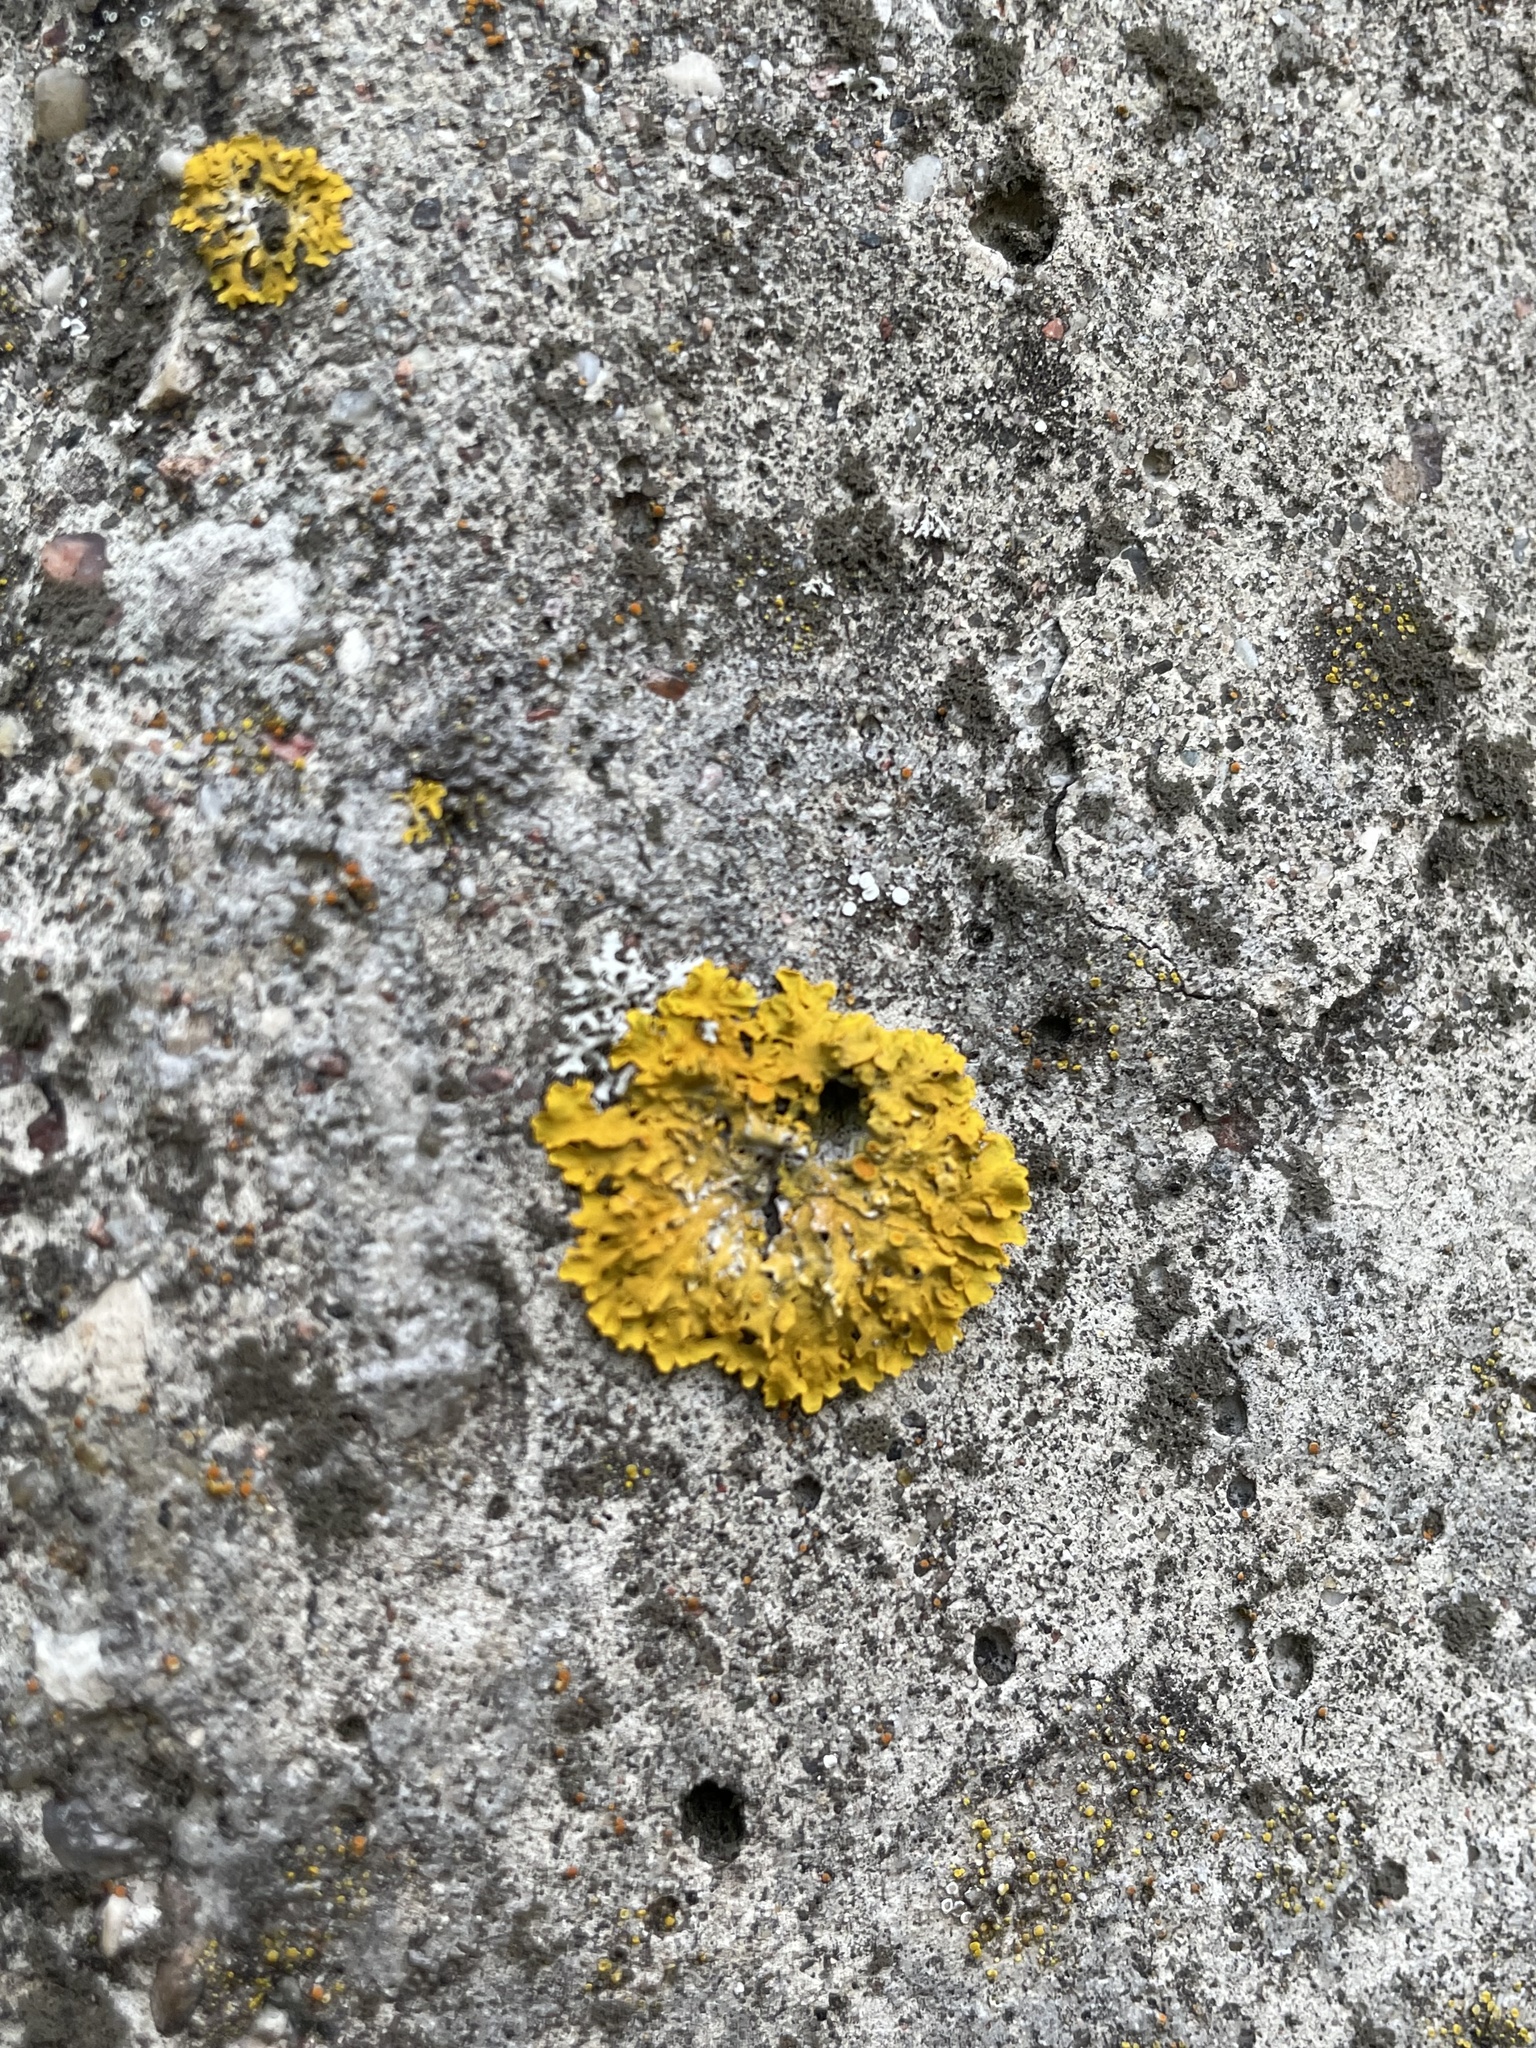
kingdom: Fungi
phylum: Ascomycota
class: Lecanoromycetes
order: Teloschistales
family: Teloschistaceae
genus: Xanthoria
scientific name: Xanthoria parietina
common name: Common orange lichen
